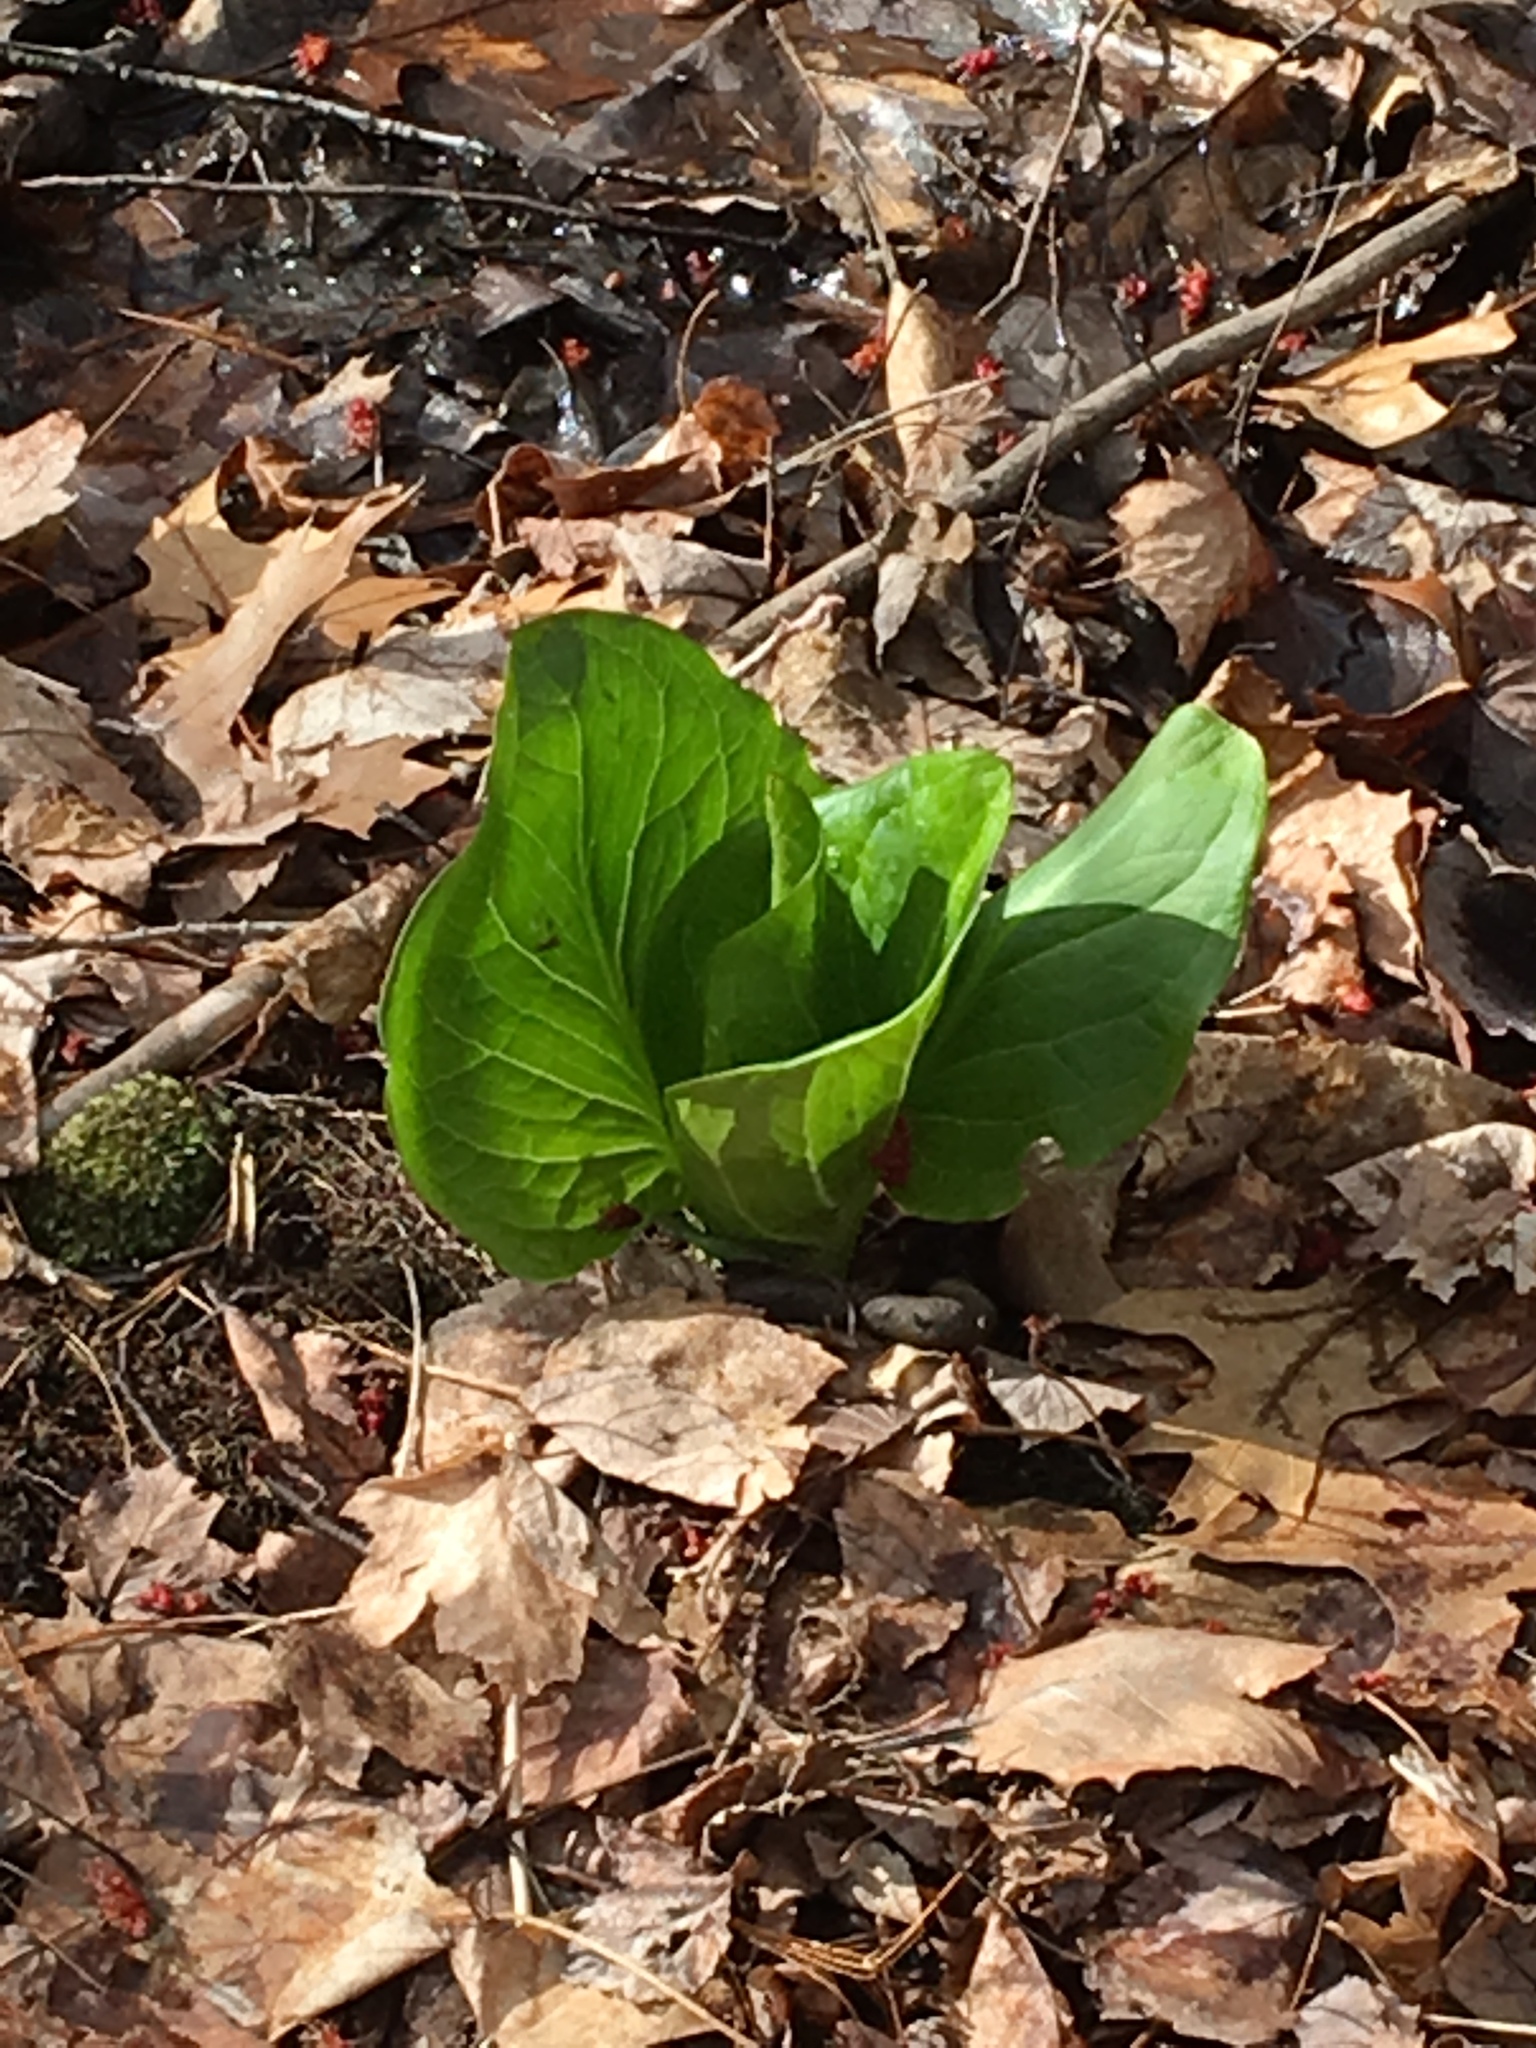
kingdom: Plantae
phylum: Tracheophyta
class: Liliopsida
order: Alismatales
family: Araceae
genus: Symplocarpus
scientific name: Symplocarpus foetidus
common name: Eastern skunk cabbage
